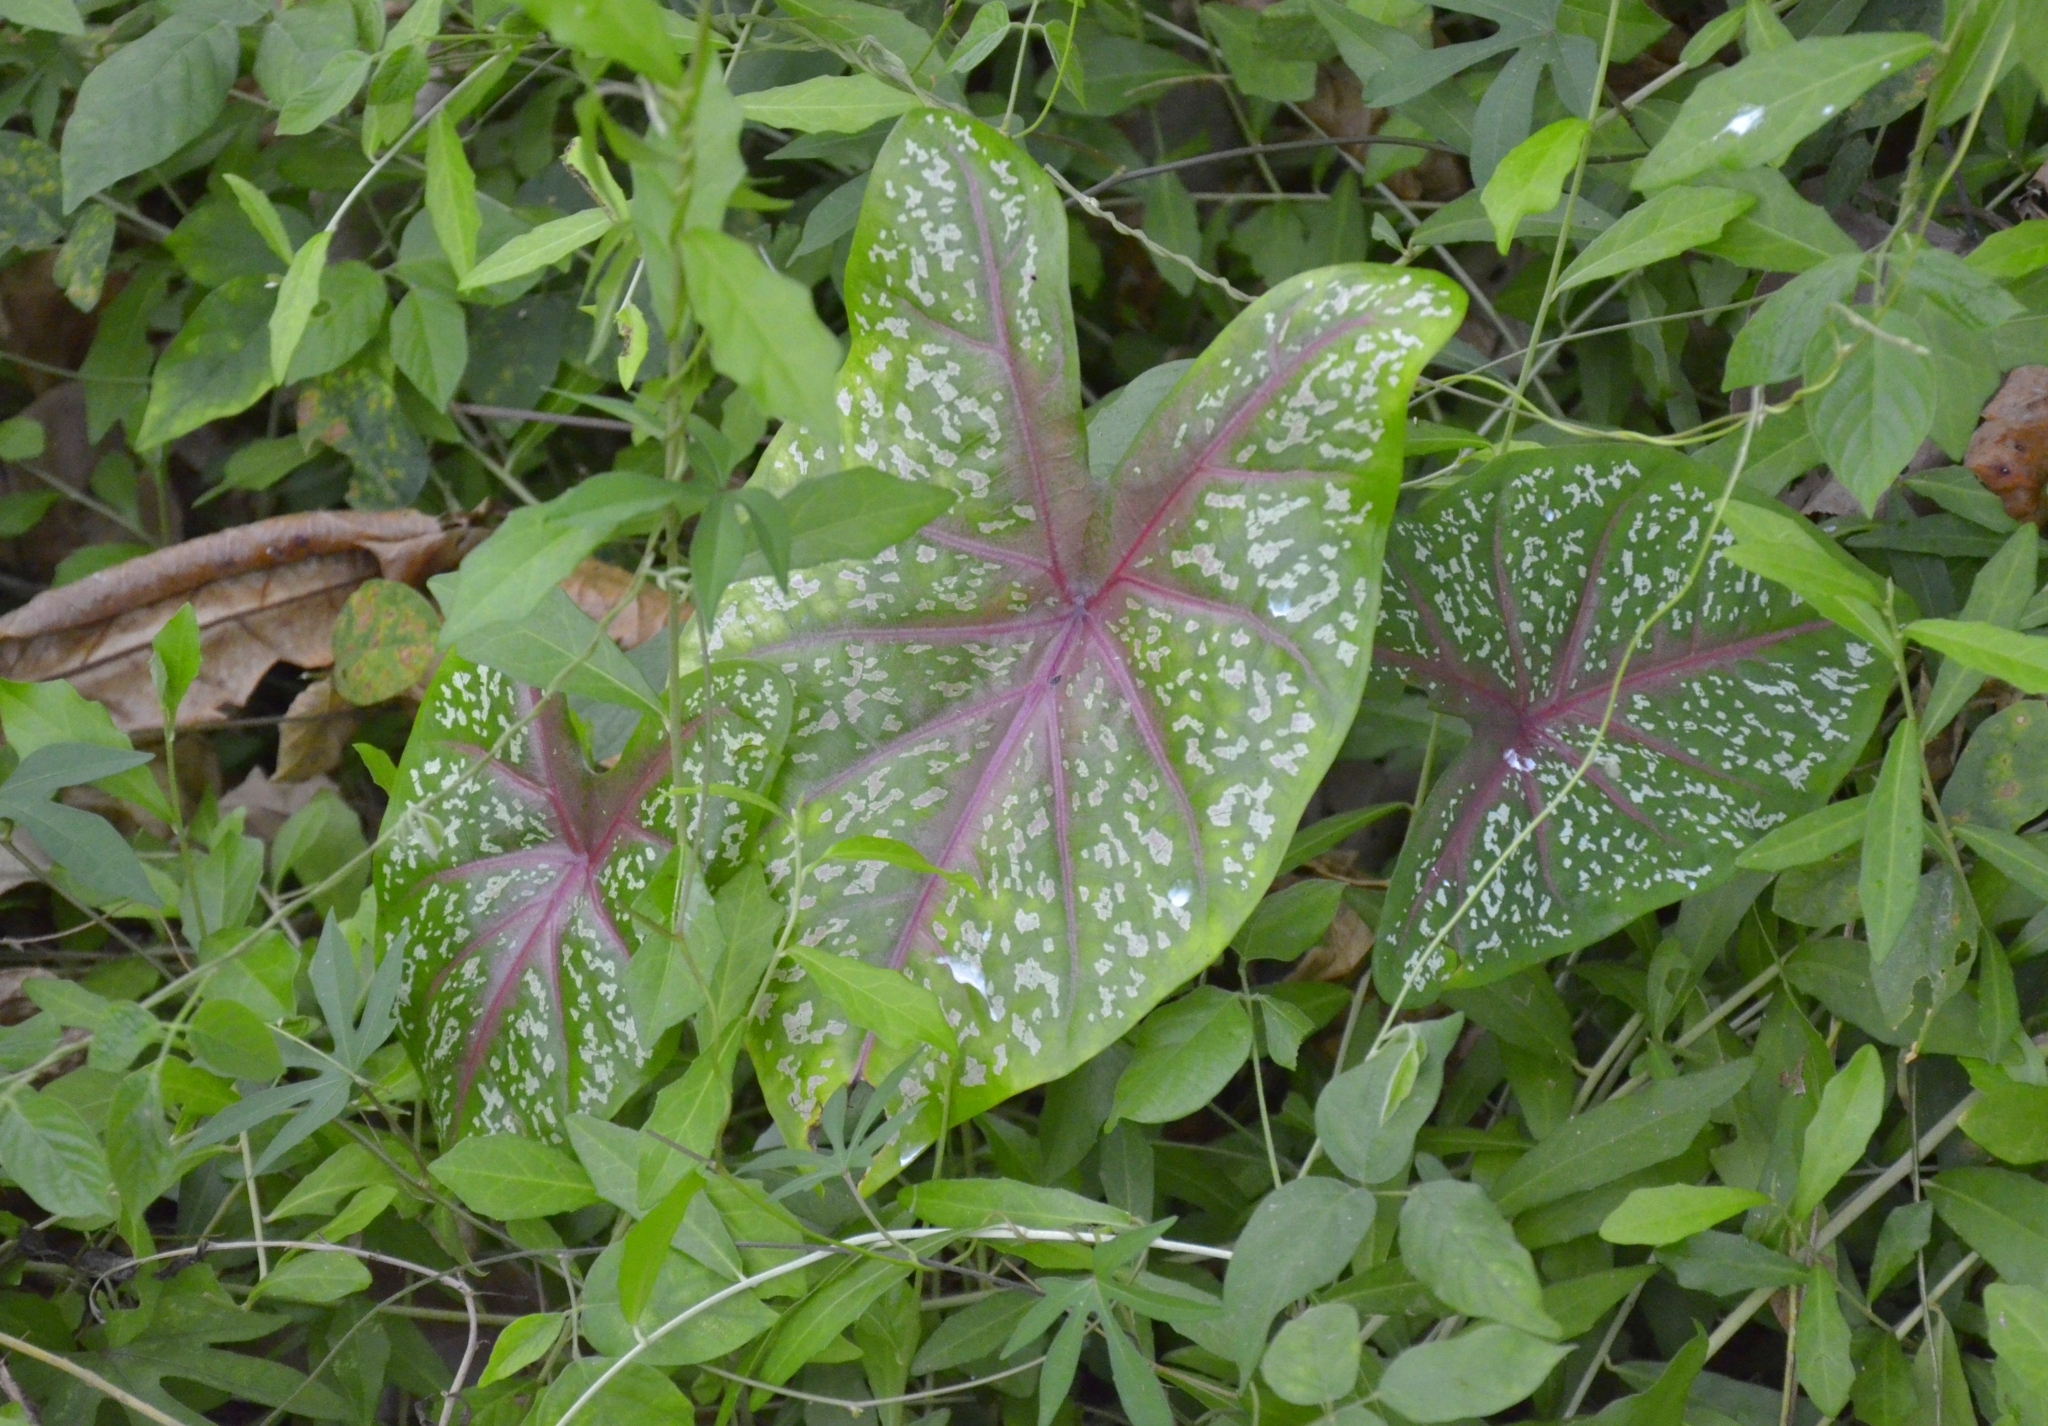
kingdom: Plantae
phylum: Tracheophyta
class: Liliopsida
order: Alismatales
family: Araceae
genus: Caladium
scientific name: Caladium bicolor
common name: Artist's pallet
